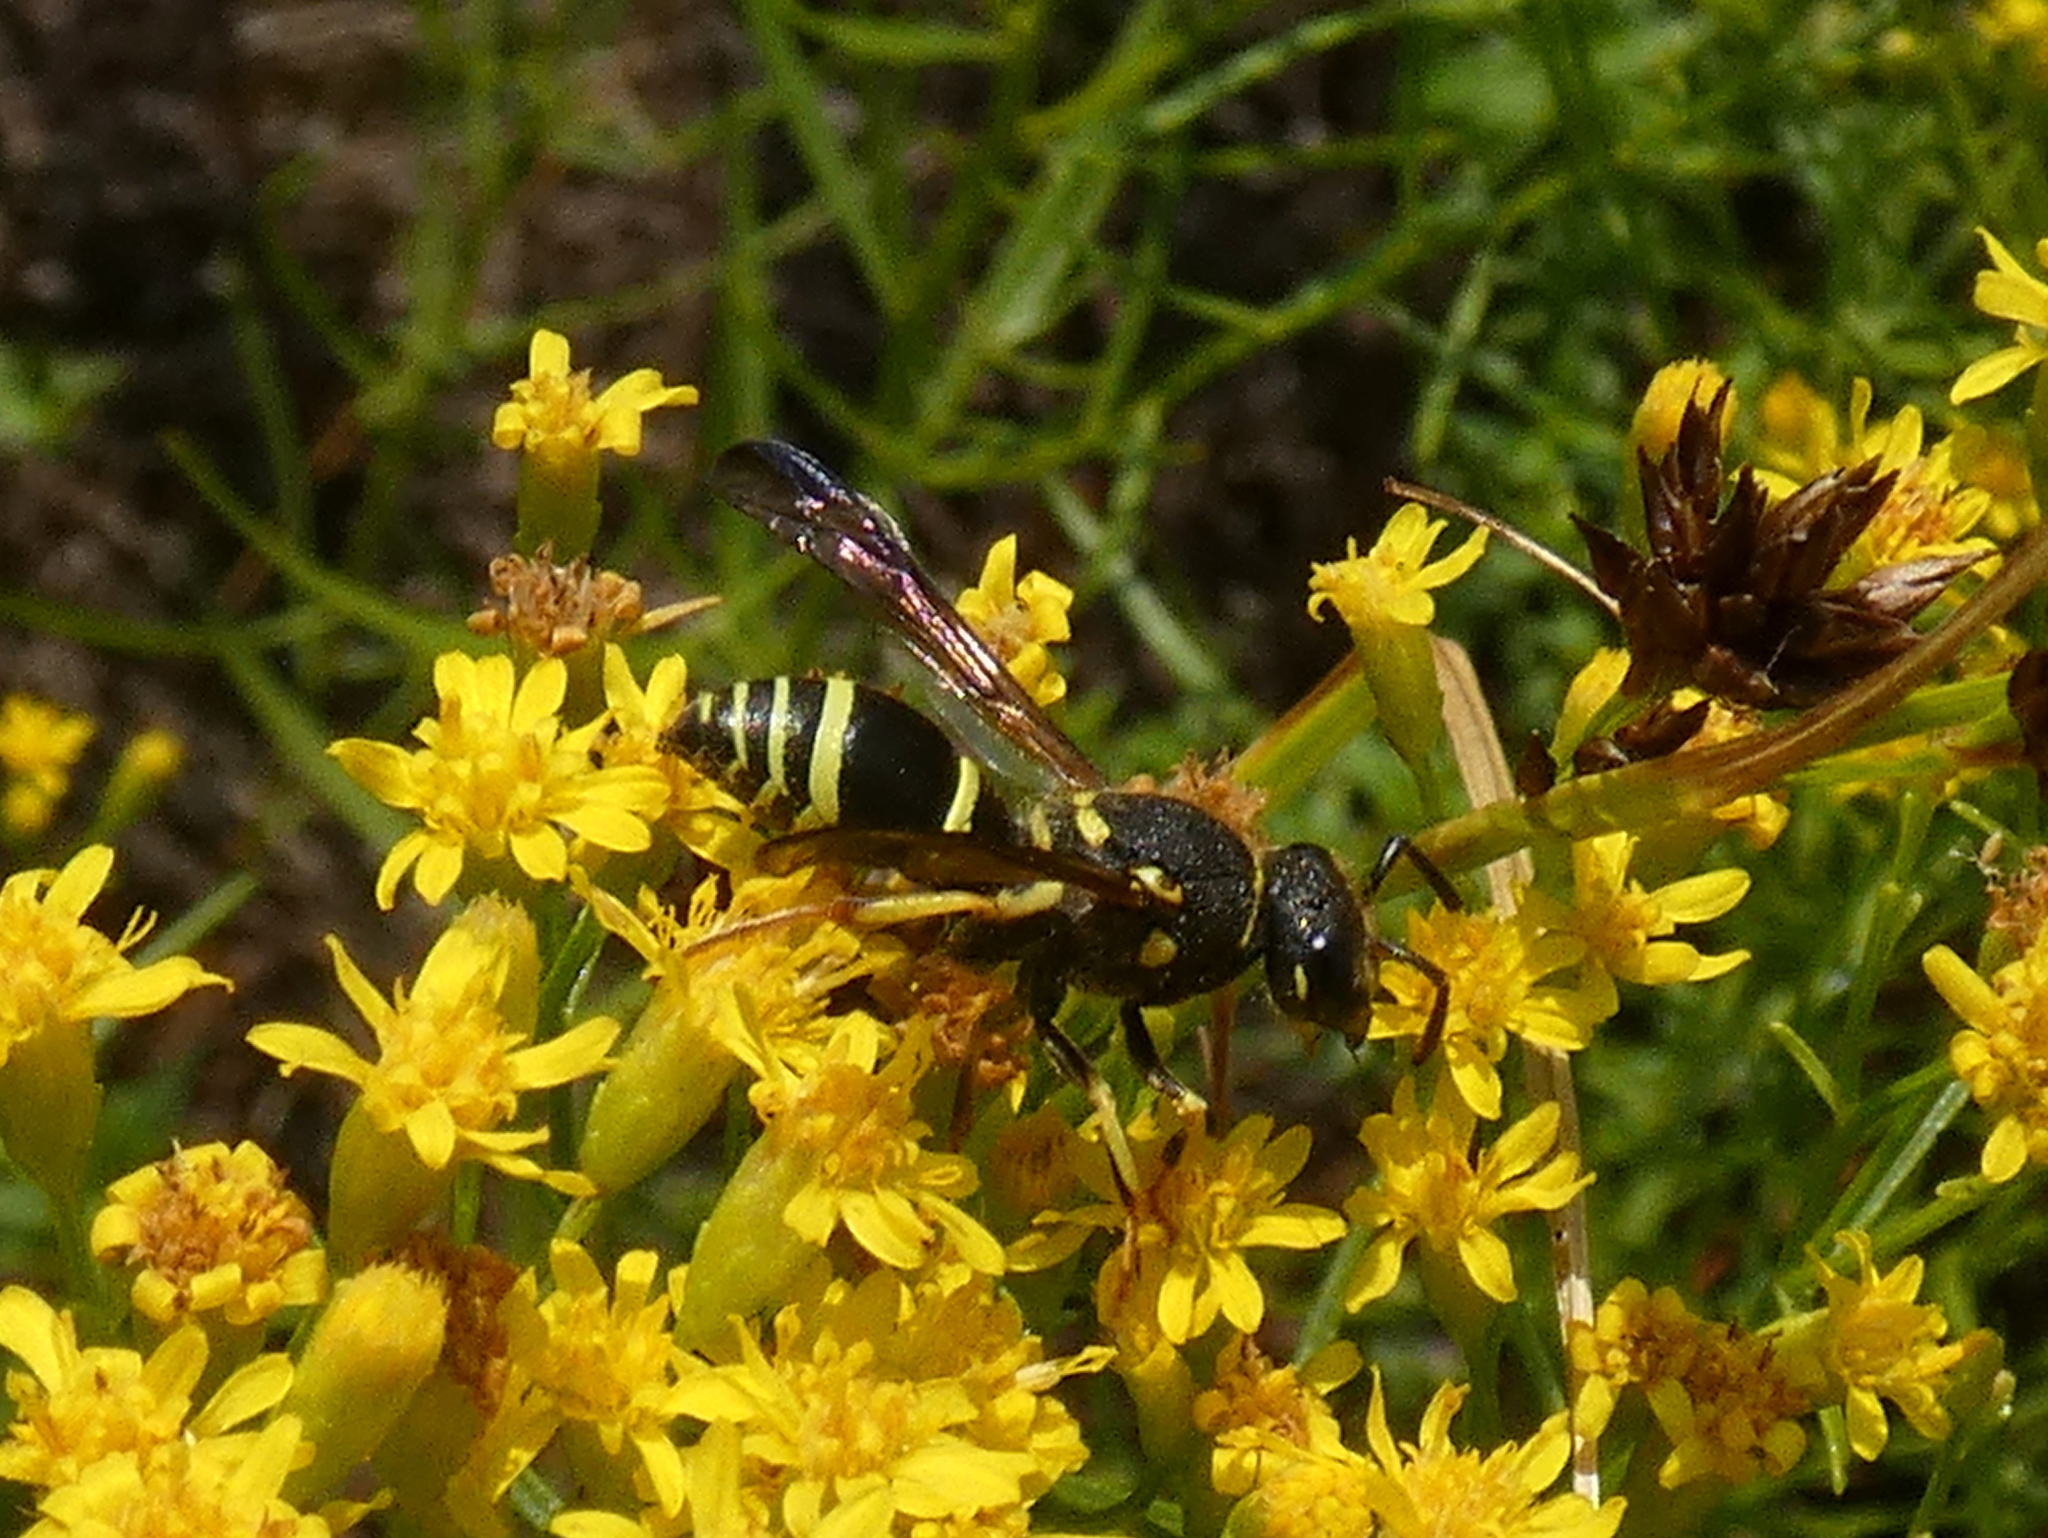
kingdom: Animalia
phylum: Arthropoda
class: Insecta
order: Hymenoptera
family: Vespidae
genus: Ancistrocerus
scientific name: Ancistrocerus catskill
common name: Vespid wasp
